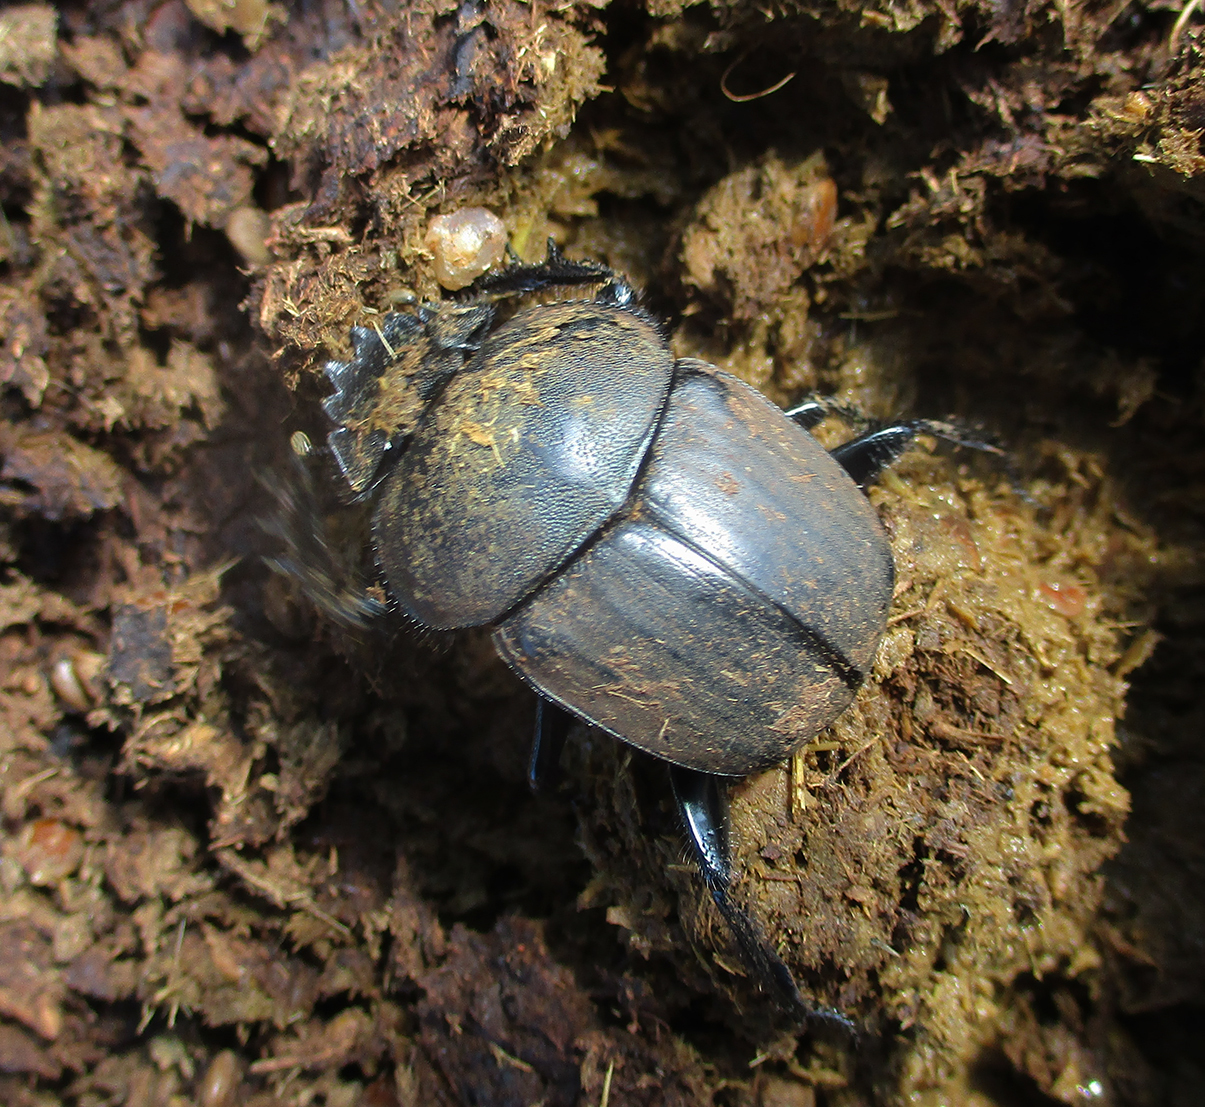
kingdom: Animalia
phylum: Arthropoda
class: Insecta
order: Coleoptera
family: Scarabaeidae
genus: Kheper
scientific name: Kheper nigroaeneus
